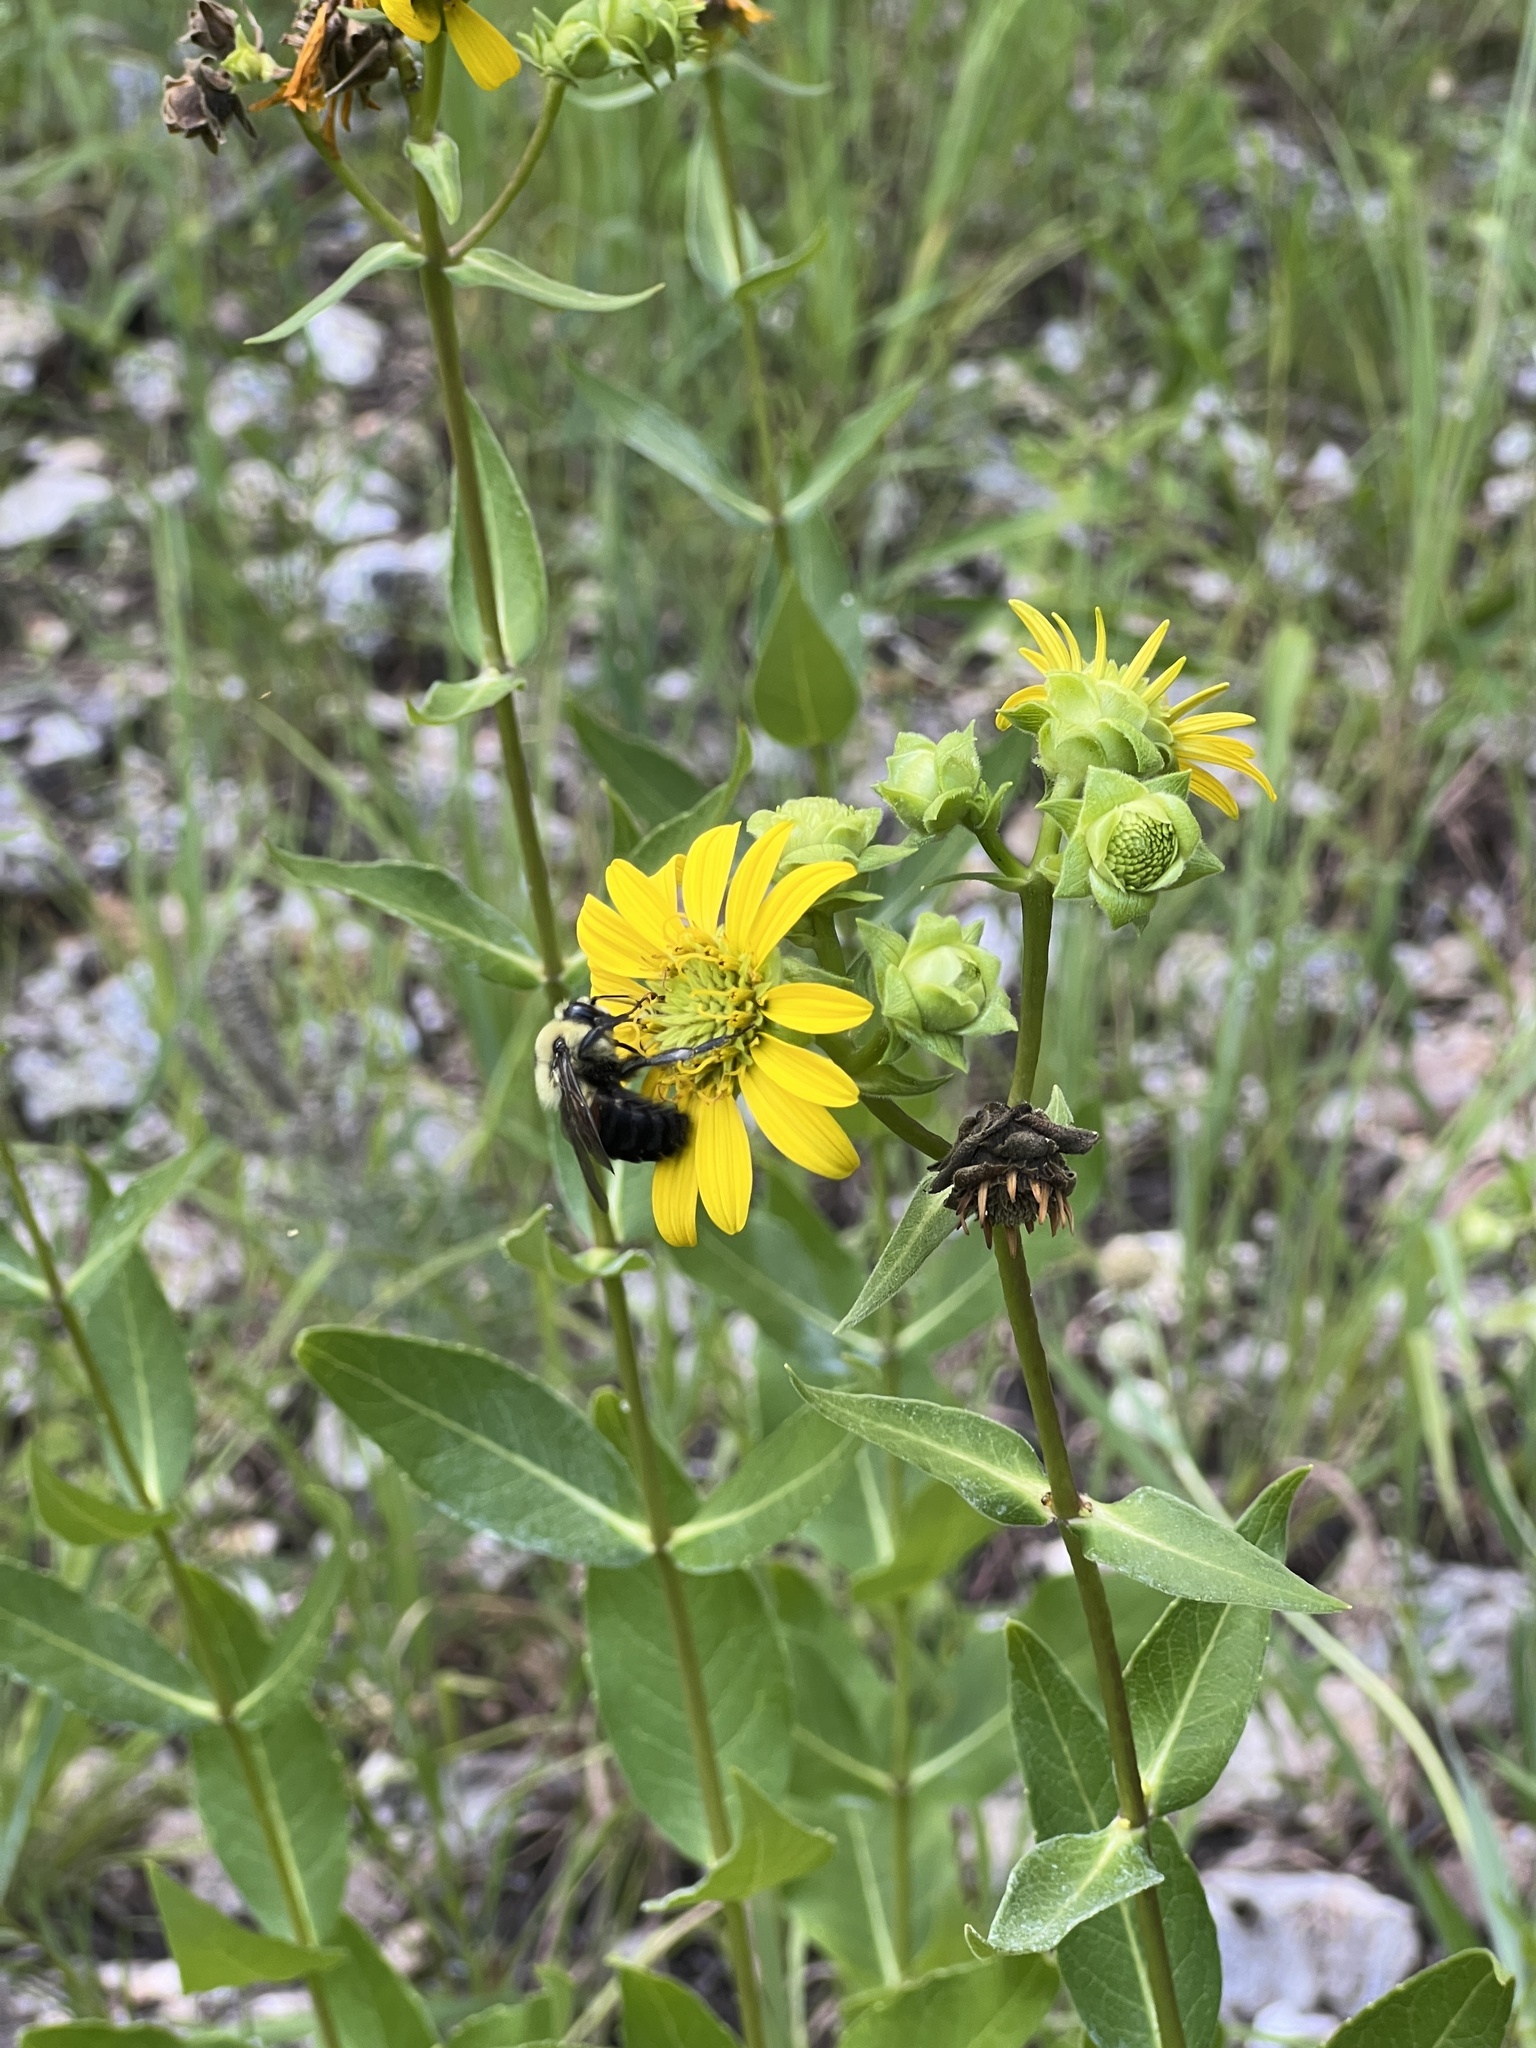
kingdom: Plantae
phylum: Tracheophyta
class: Magnoliopsida
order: Asterales
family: Asteraceae
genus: Silphium
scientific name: Silphium integrifolium
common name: Whole-leaf rosinweed
